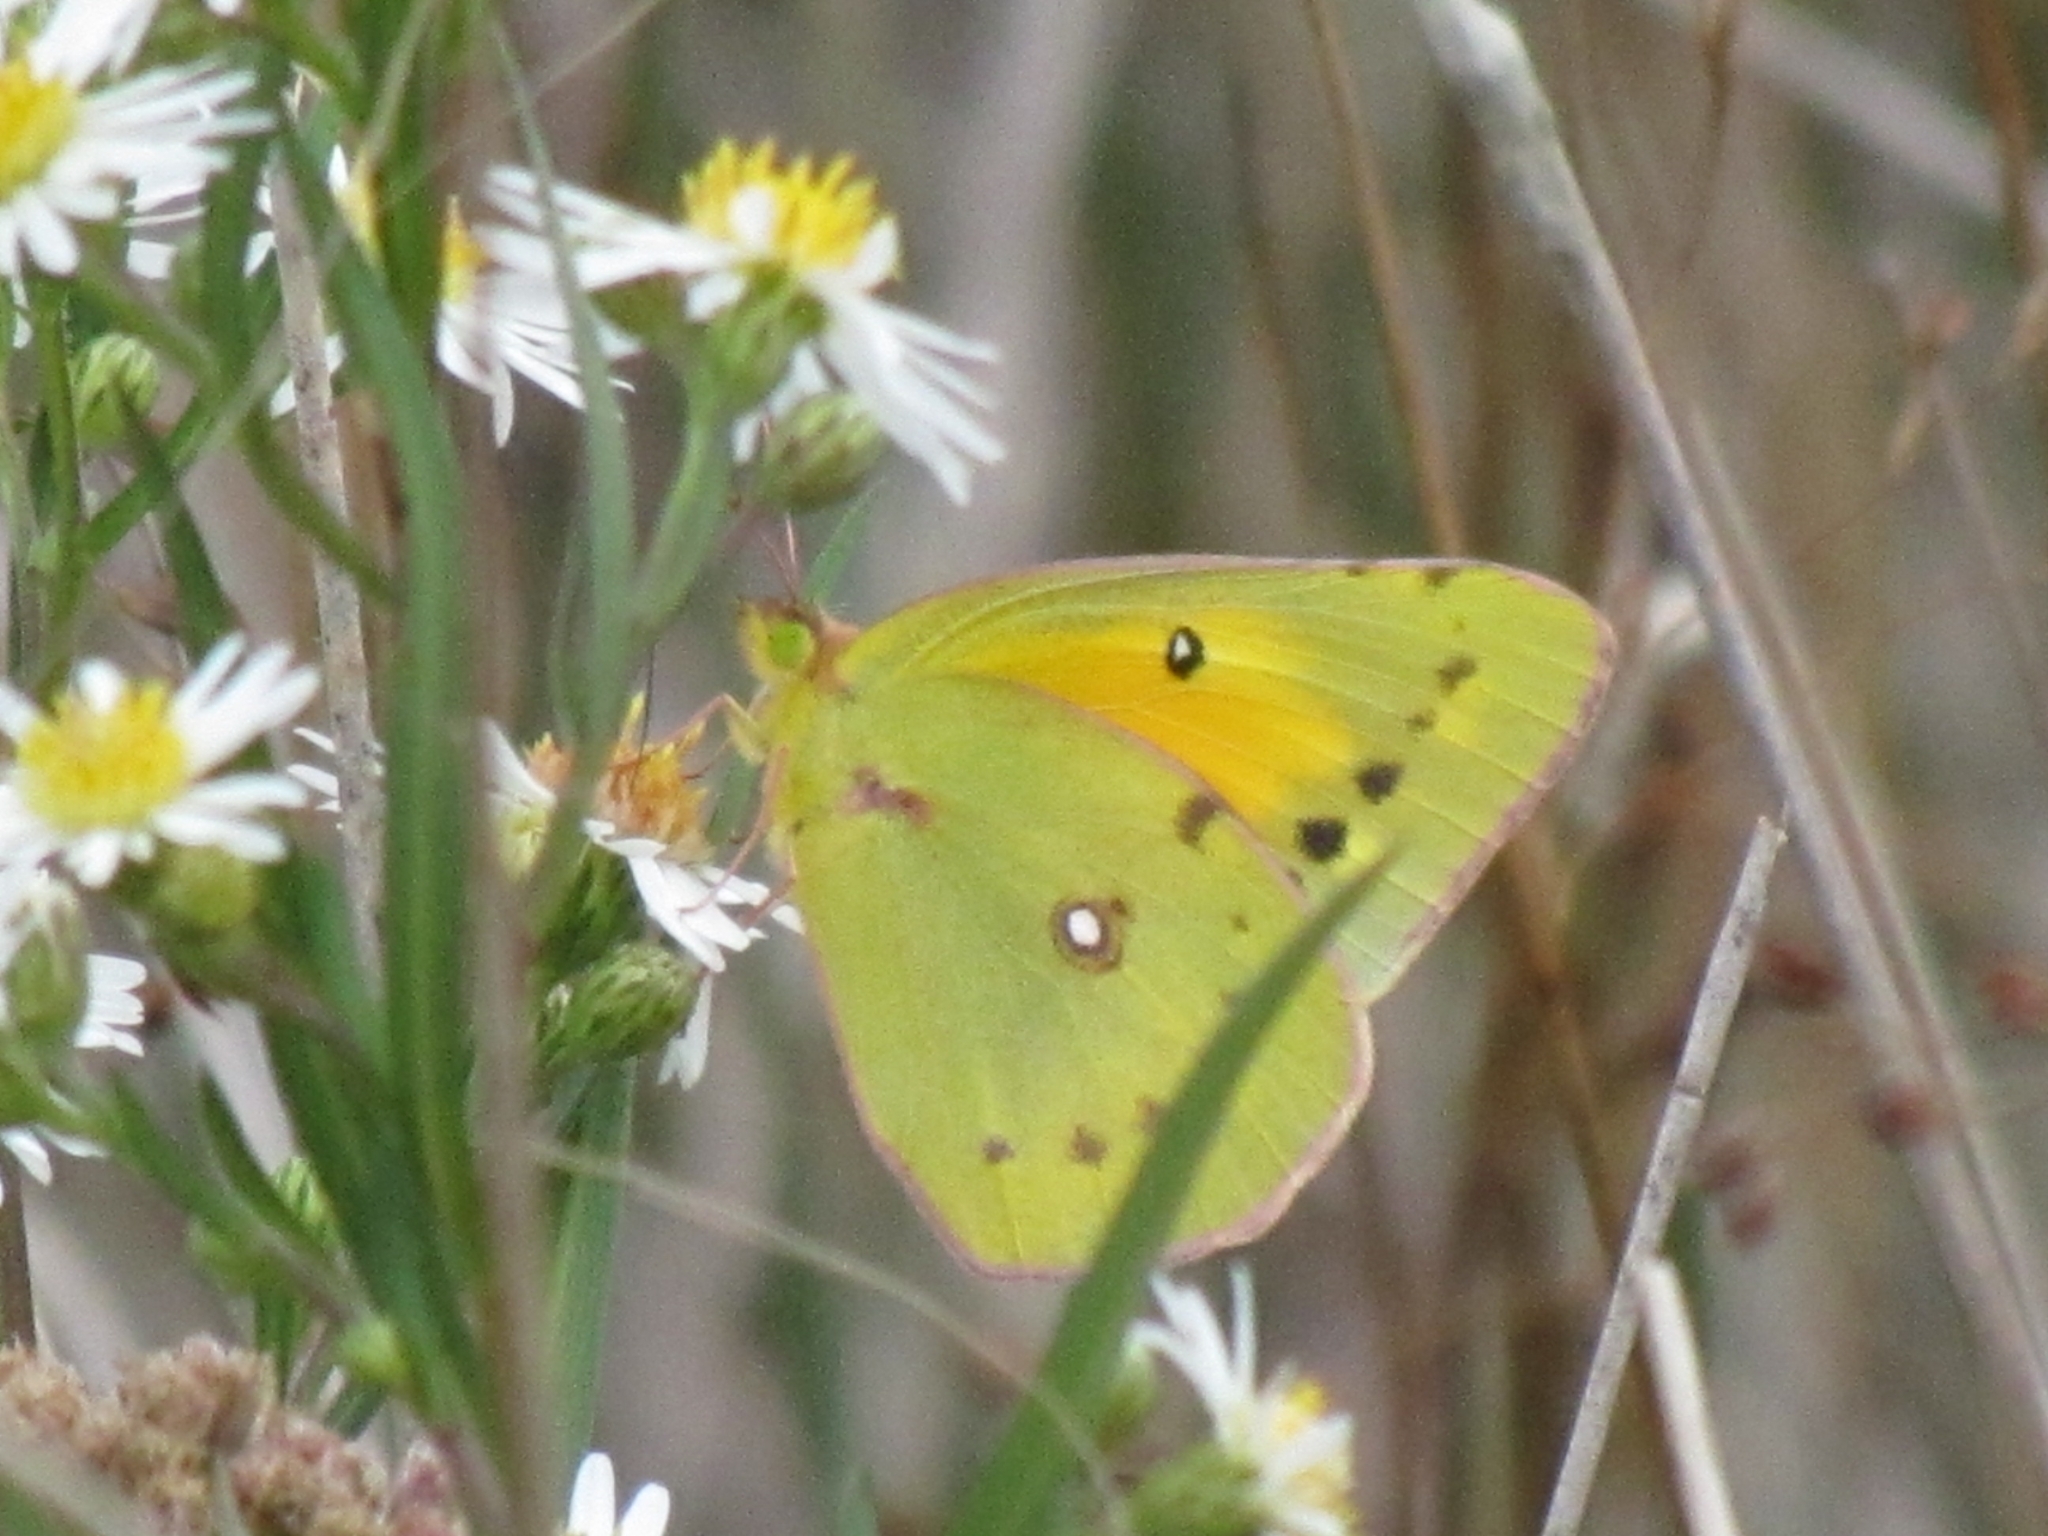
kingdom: Animalia
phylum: Arthropoda
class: Insecta
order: Lepidoptera
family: Pieridae
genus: Colias
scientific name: Colias eurytheme
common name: Alfalfa butterfly
